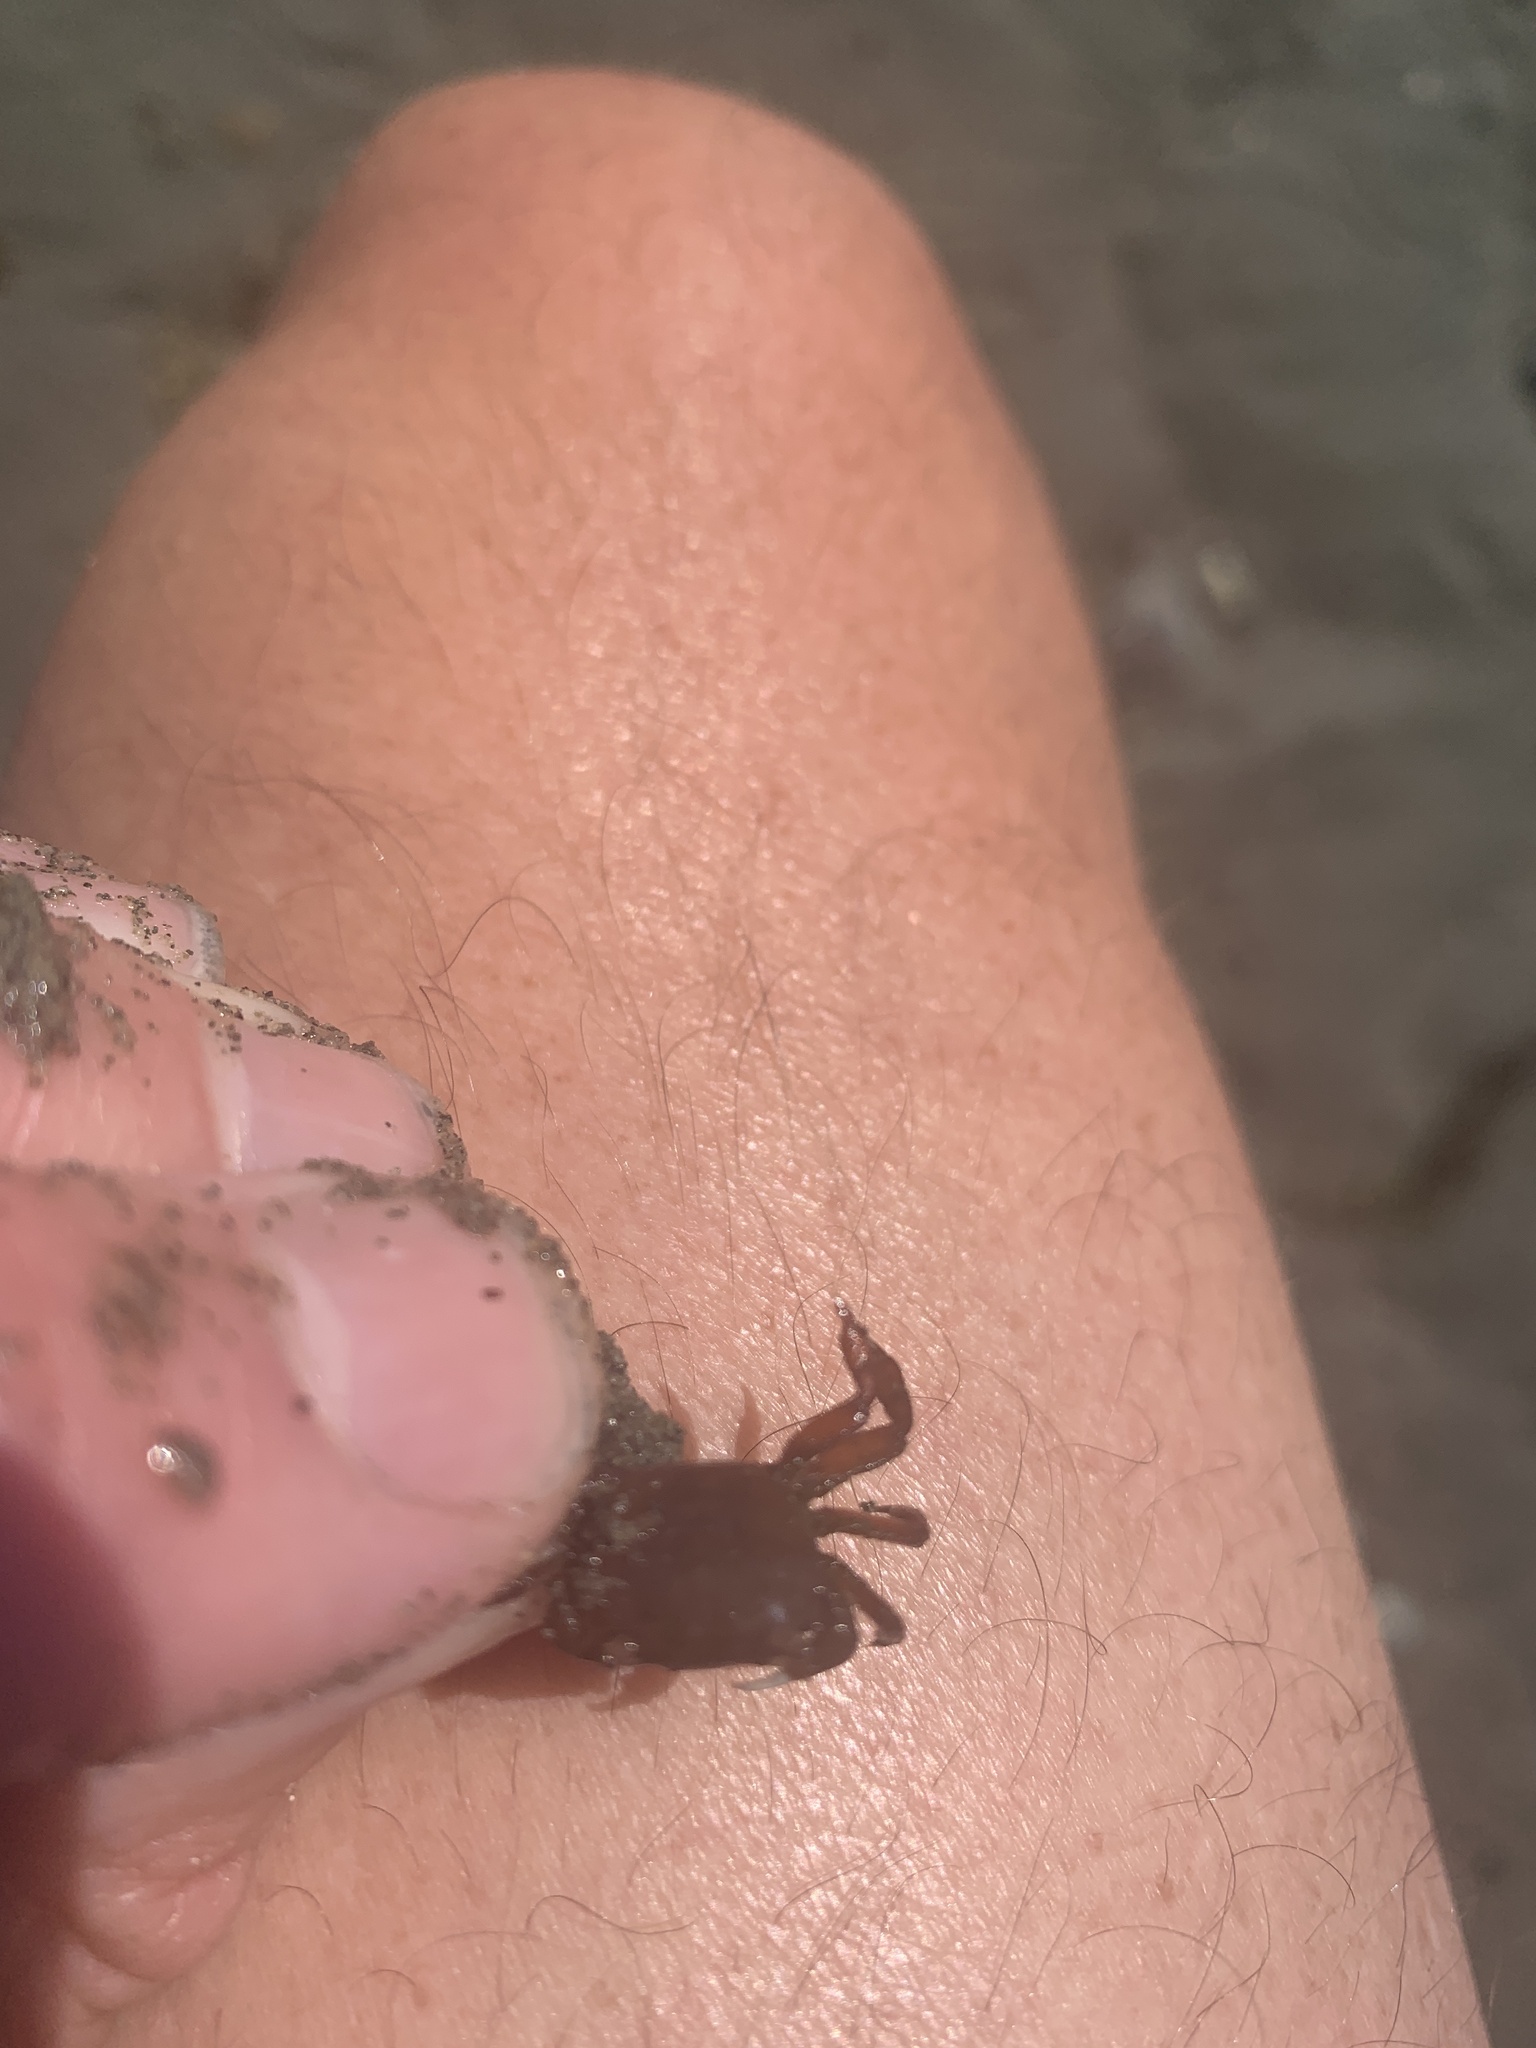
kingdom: Animalia
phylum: Arthropoda
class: Malacostraca
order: Decapoda
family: Varunidae
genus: Hemigrapsus
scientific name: Hemigrapsus oregonensis
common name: Yellow shore crab
